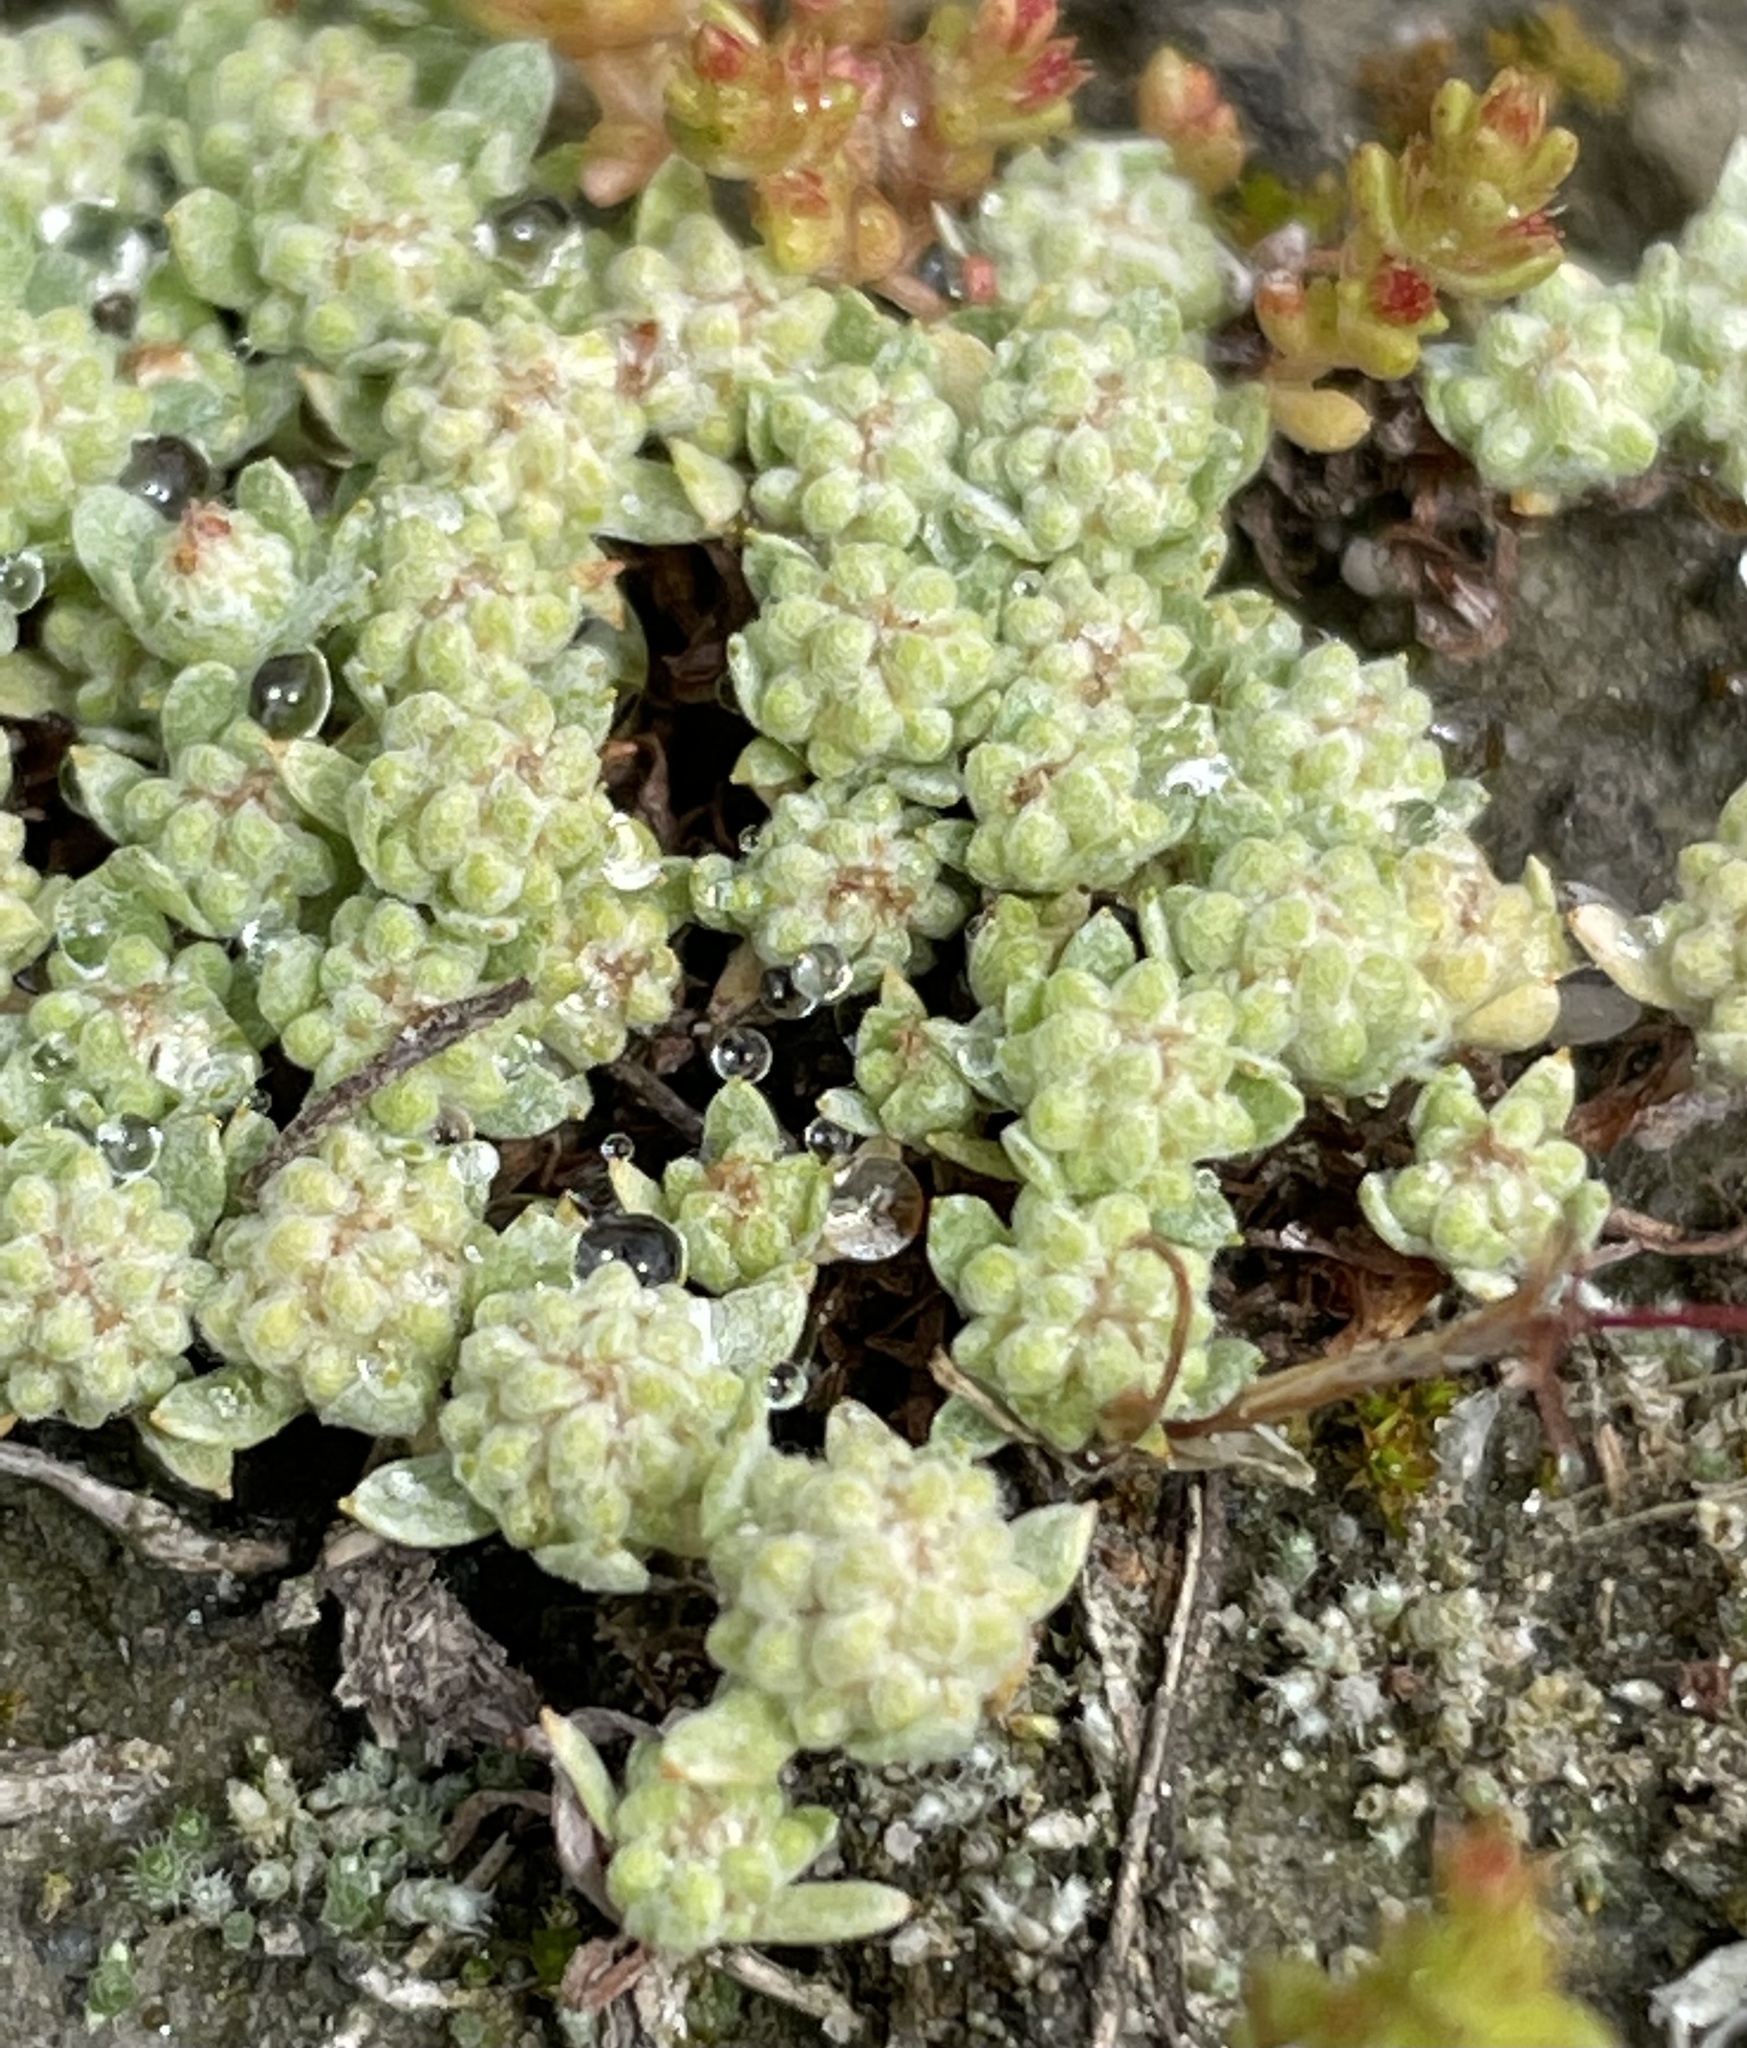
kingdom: Plantae
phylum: Tracheophyta
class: Magnoliopsida
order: Asterales
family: Asteraceae
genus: Psilocarphus
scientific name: Psilocarphus tenellus
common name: Slender woolly-marbles
